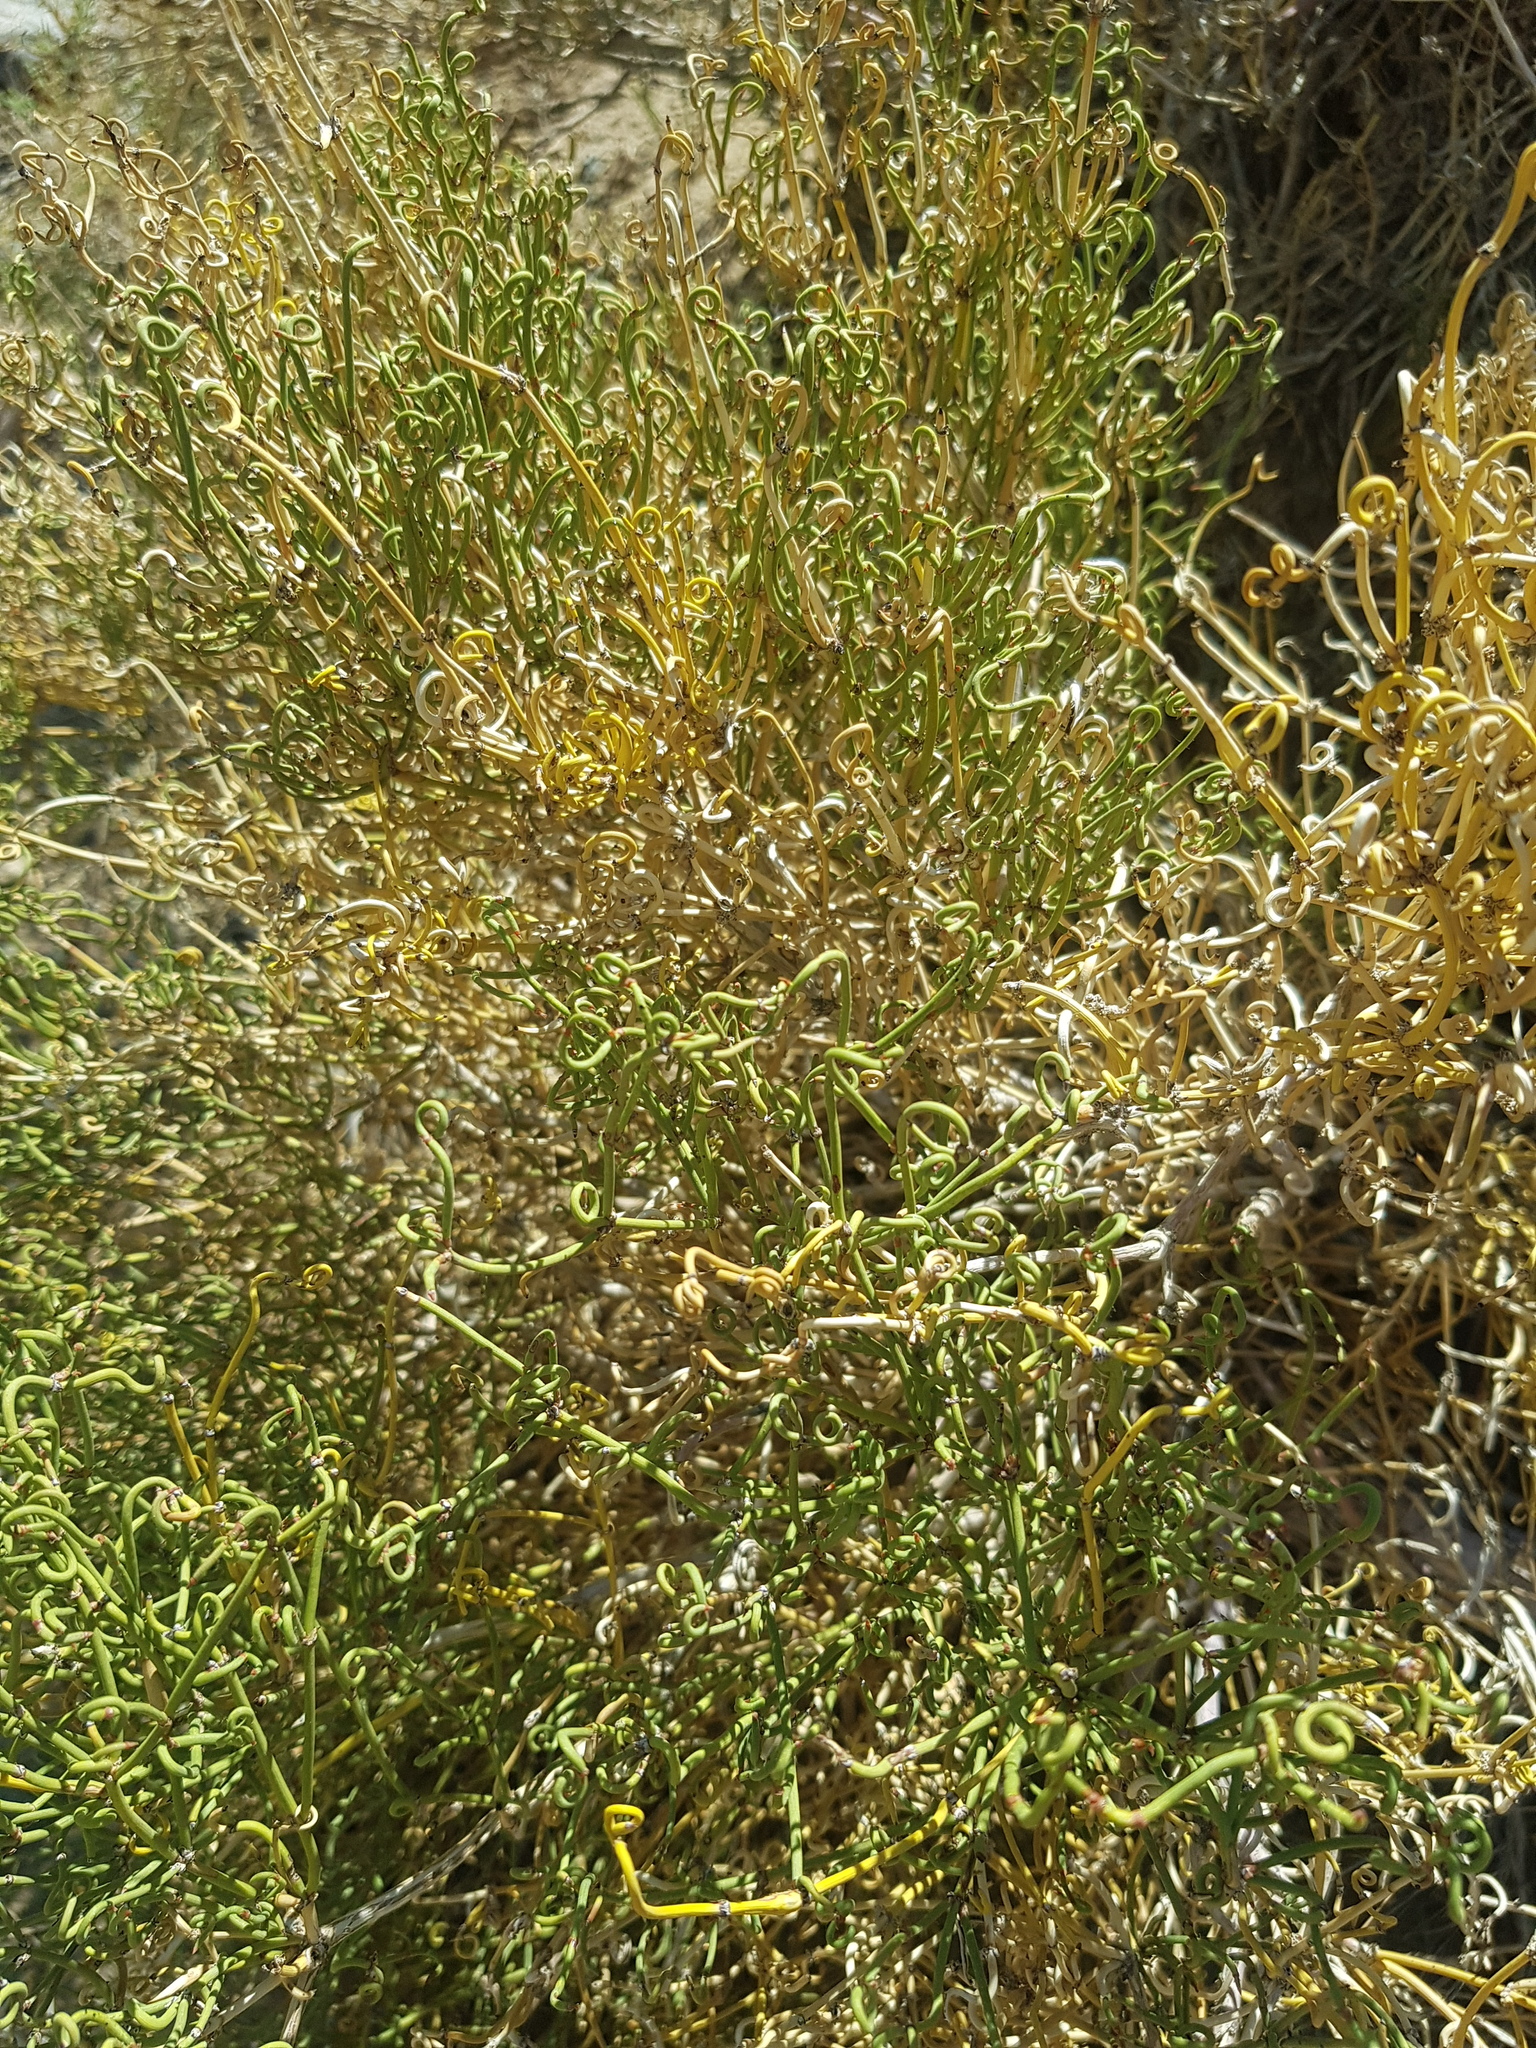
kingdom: Plantae
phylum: Tracheophyta
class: Gnetopsida
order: Ephedrales
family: Ephedraceae
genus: Ephedra
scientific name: Ephedra przewalskii
